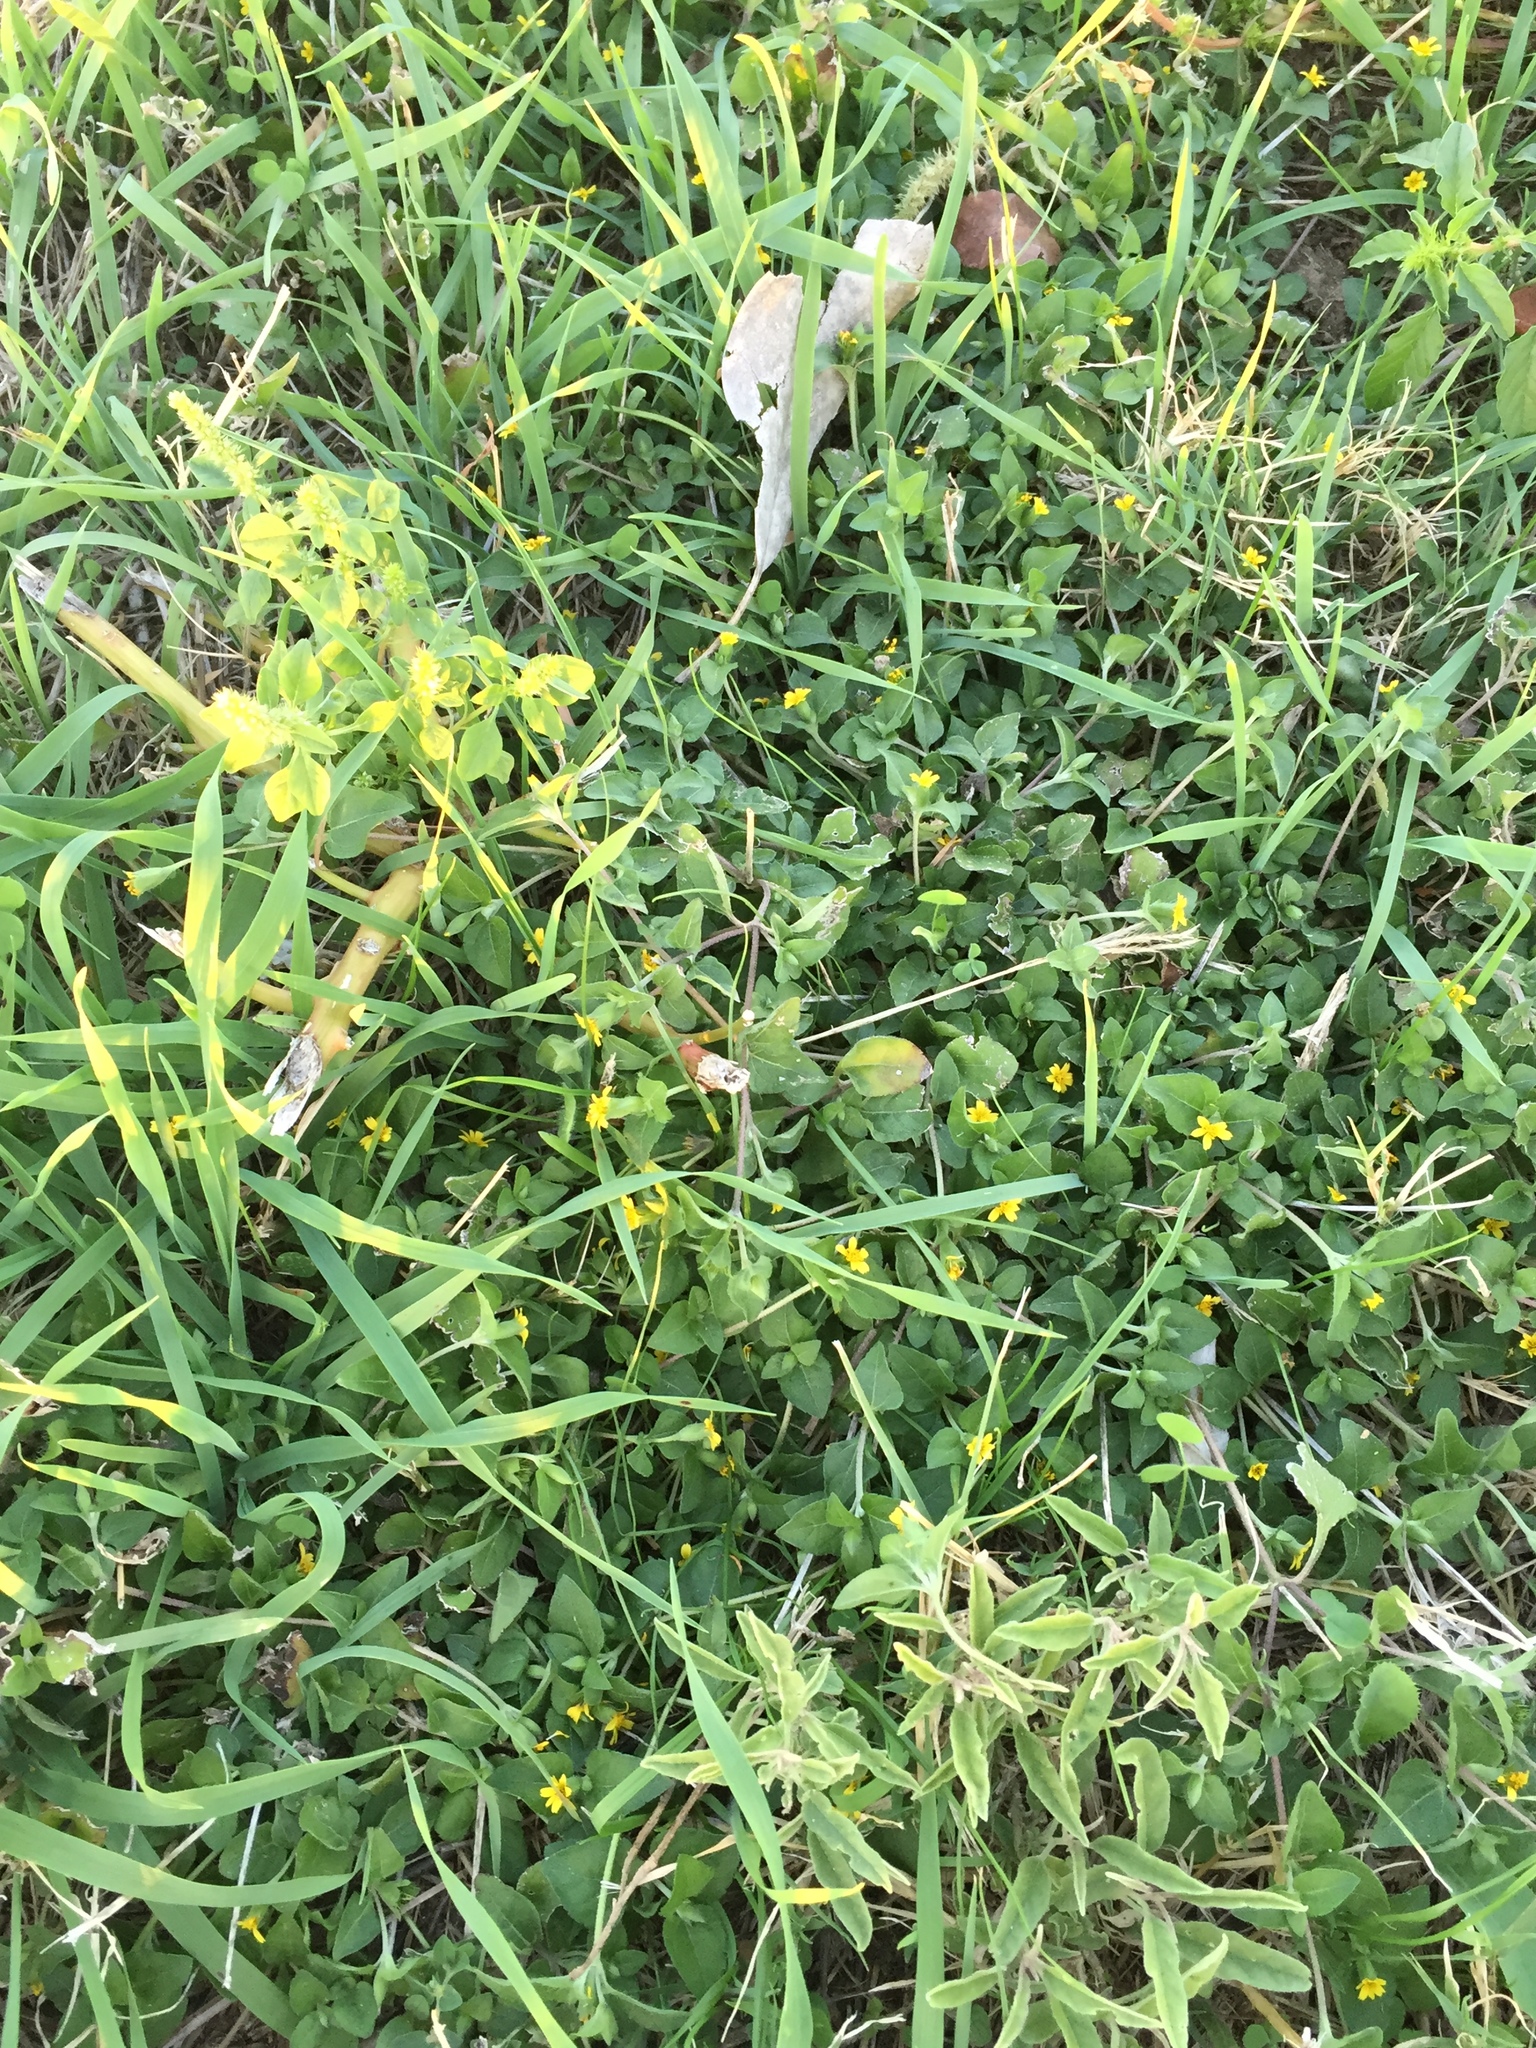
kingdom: Plantae
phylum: Tracheophyta
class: Magnoliopsida
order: Asterales
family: Asteraceae
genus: Calyptocarpus
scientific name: Calyptocarpus vialis
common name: Straggler daisy
